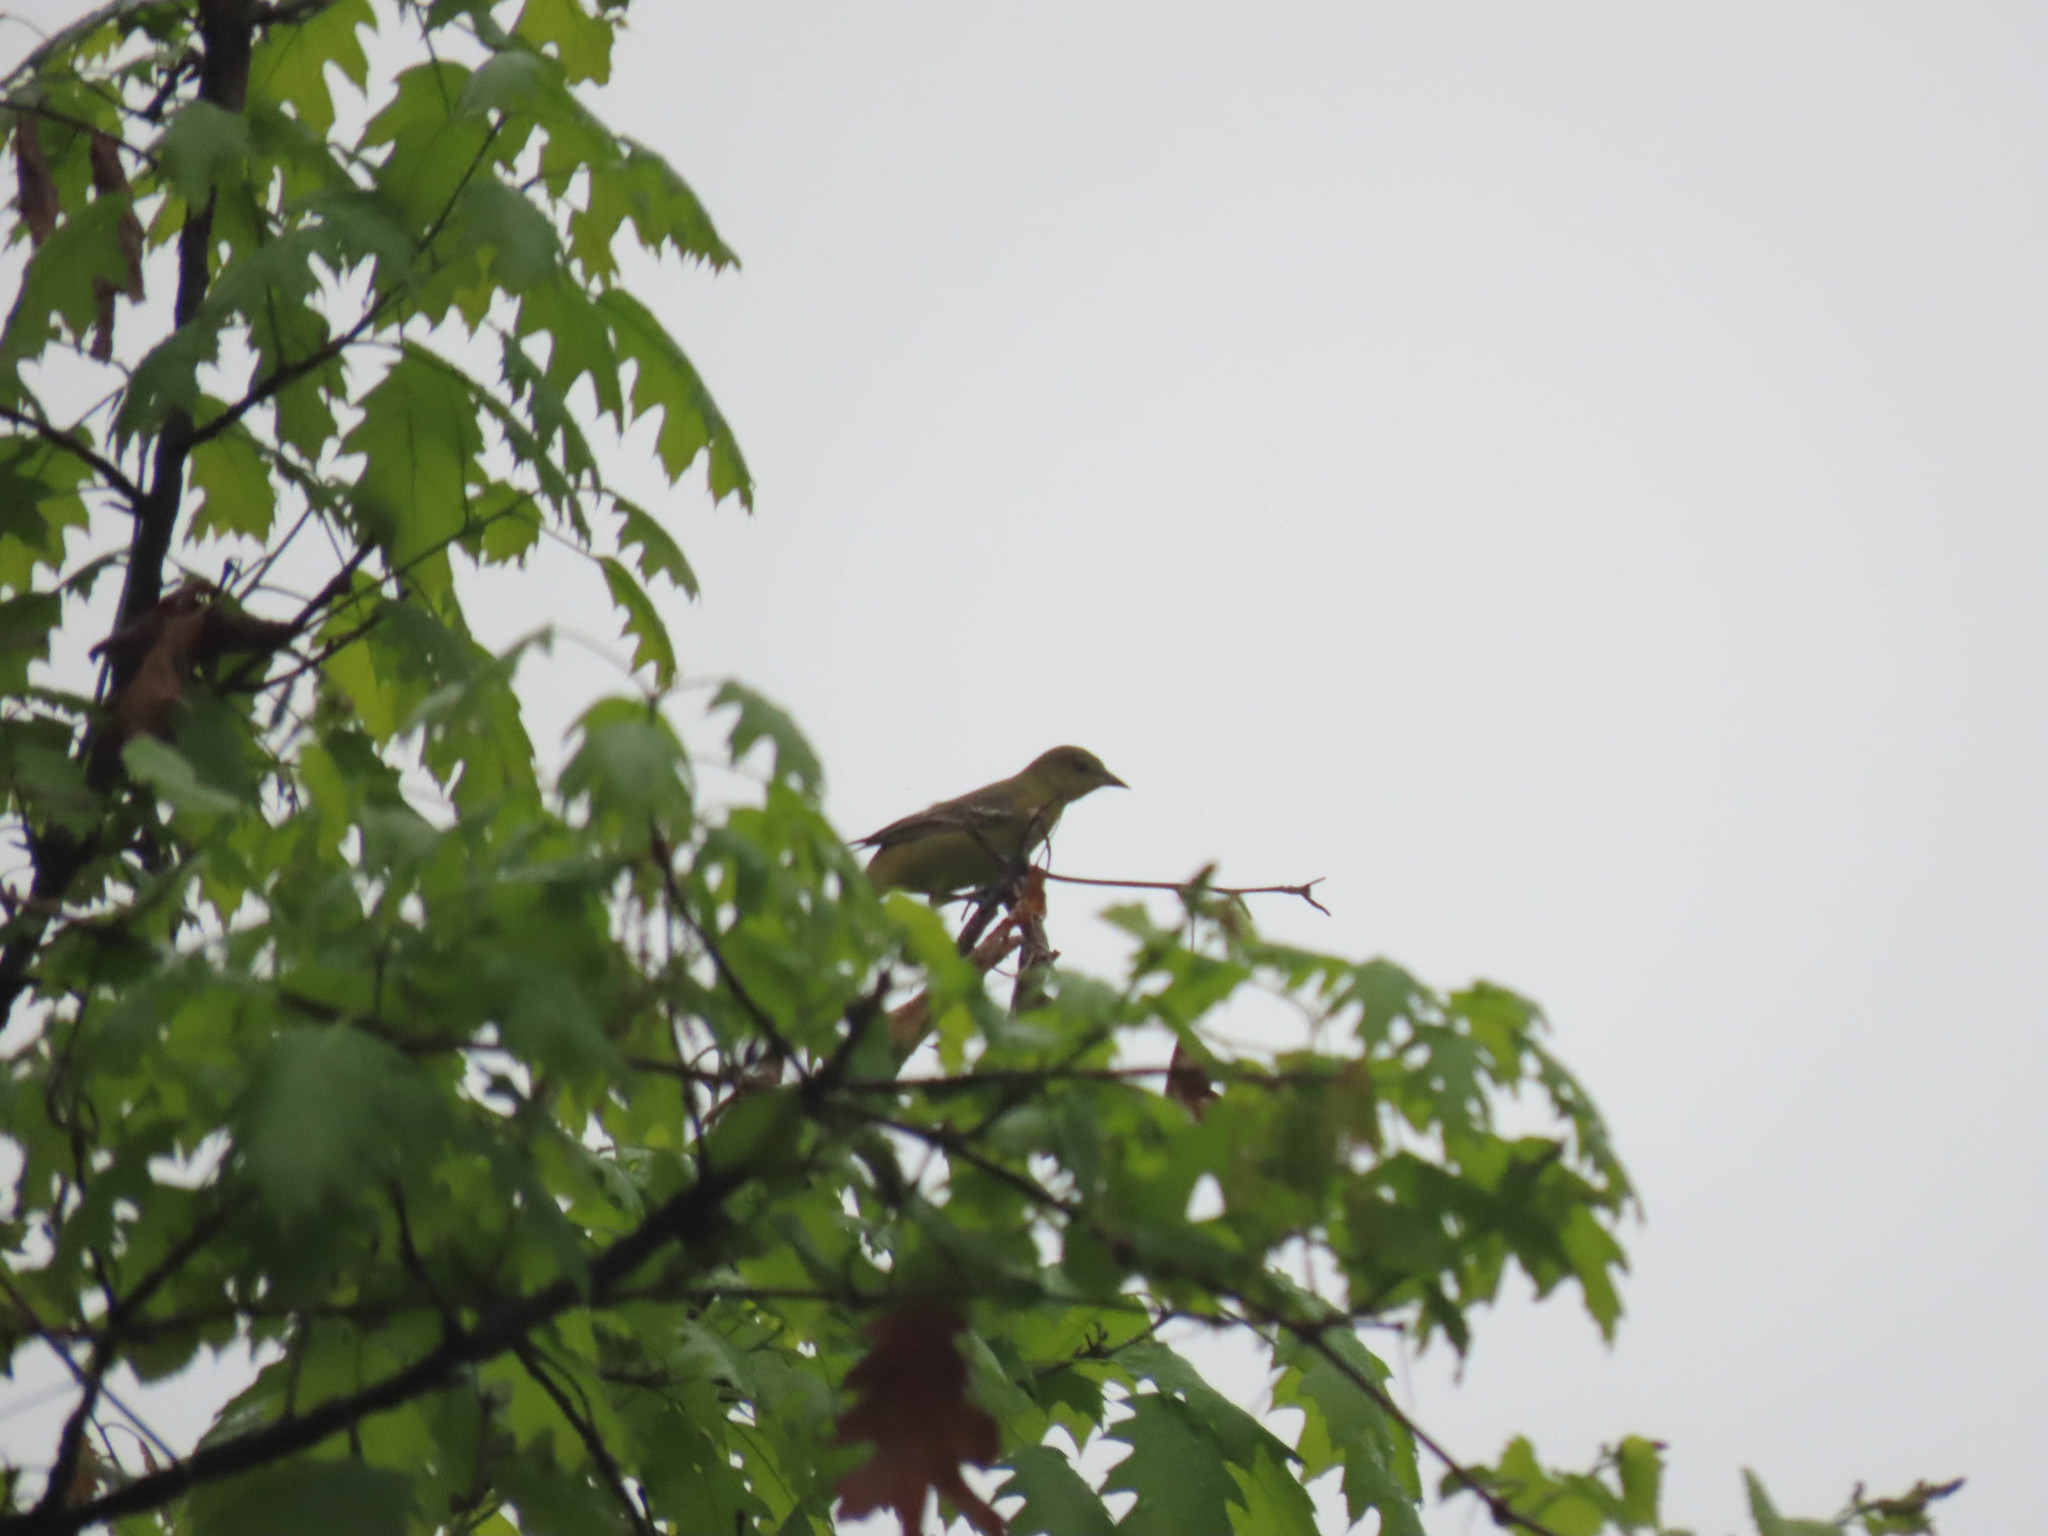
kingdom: Animalia
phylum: Chordata
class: Aves
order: Passeriformes
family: Icteridae
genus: Icterus
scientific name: Icterus galbula
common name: Baltimore oriole
